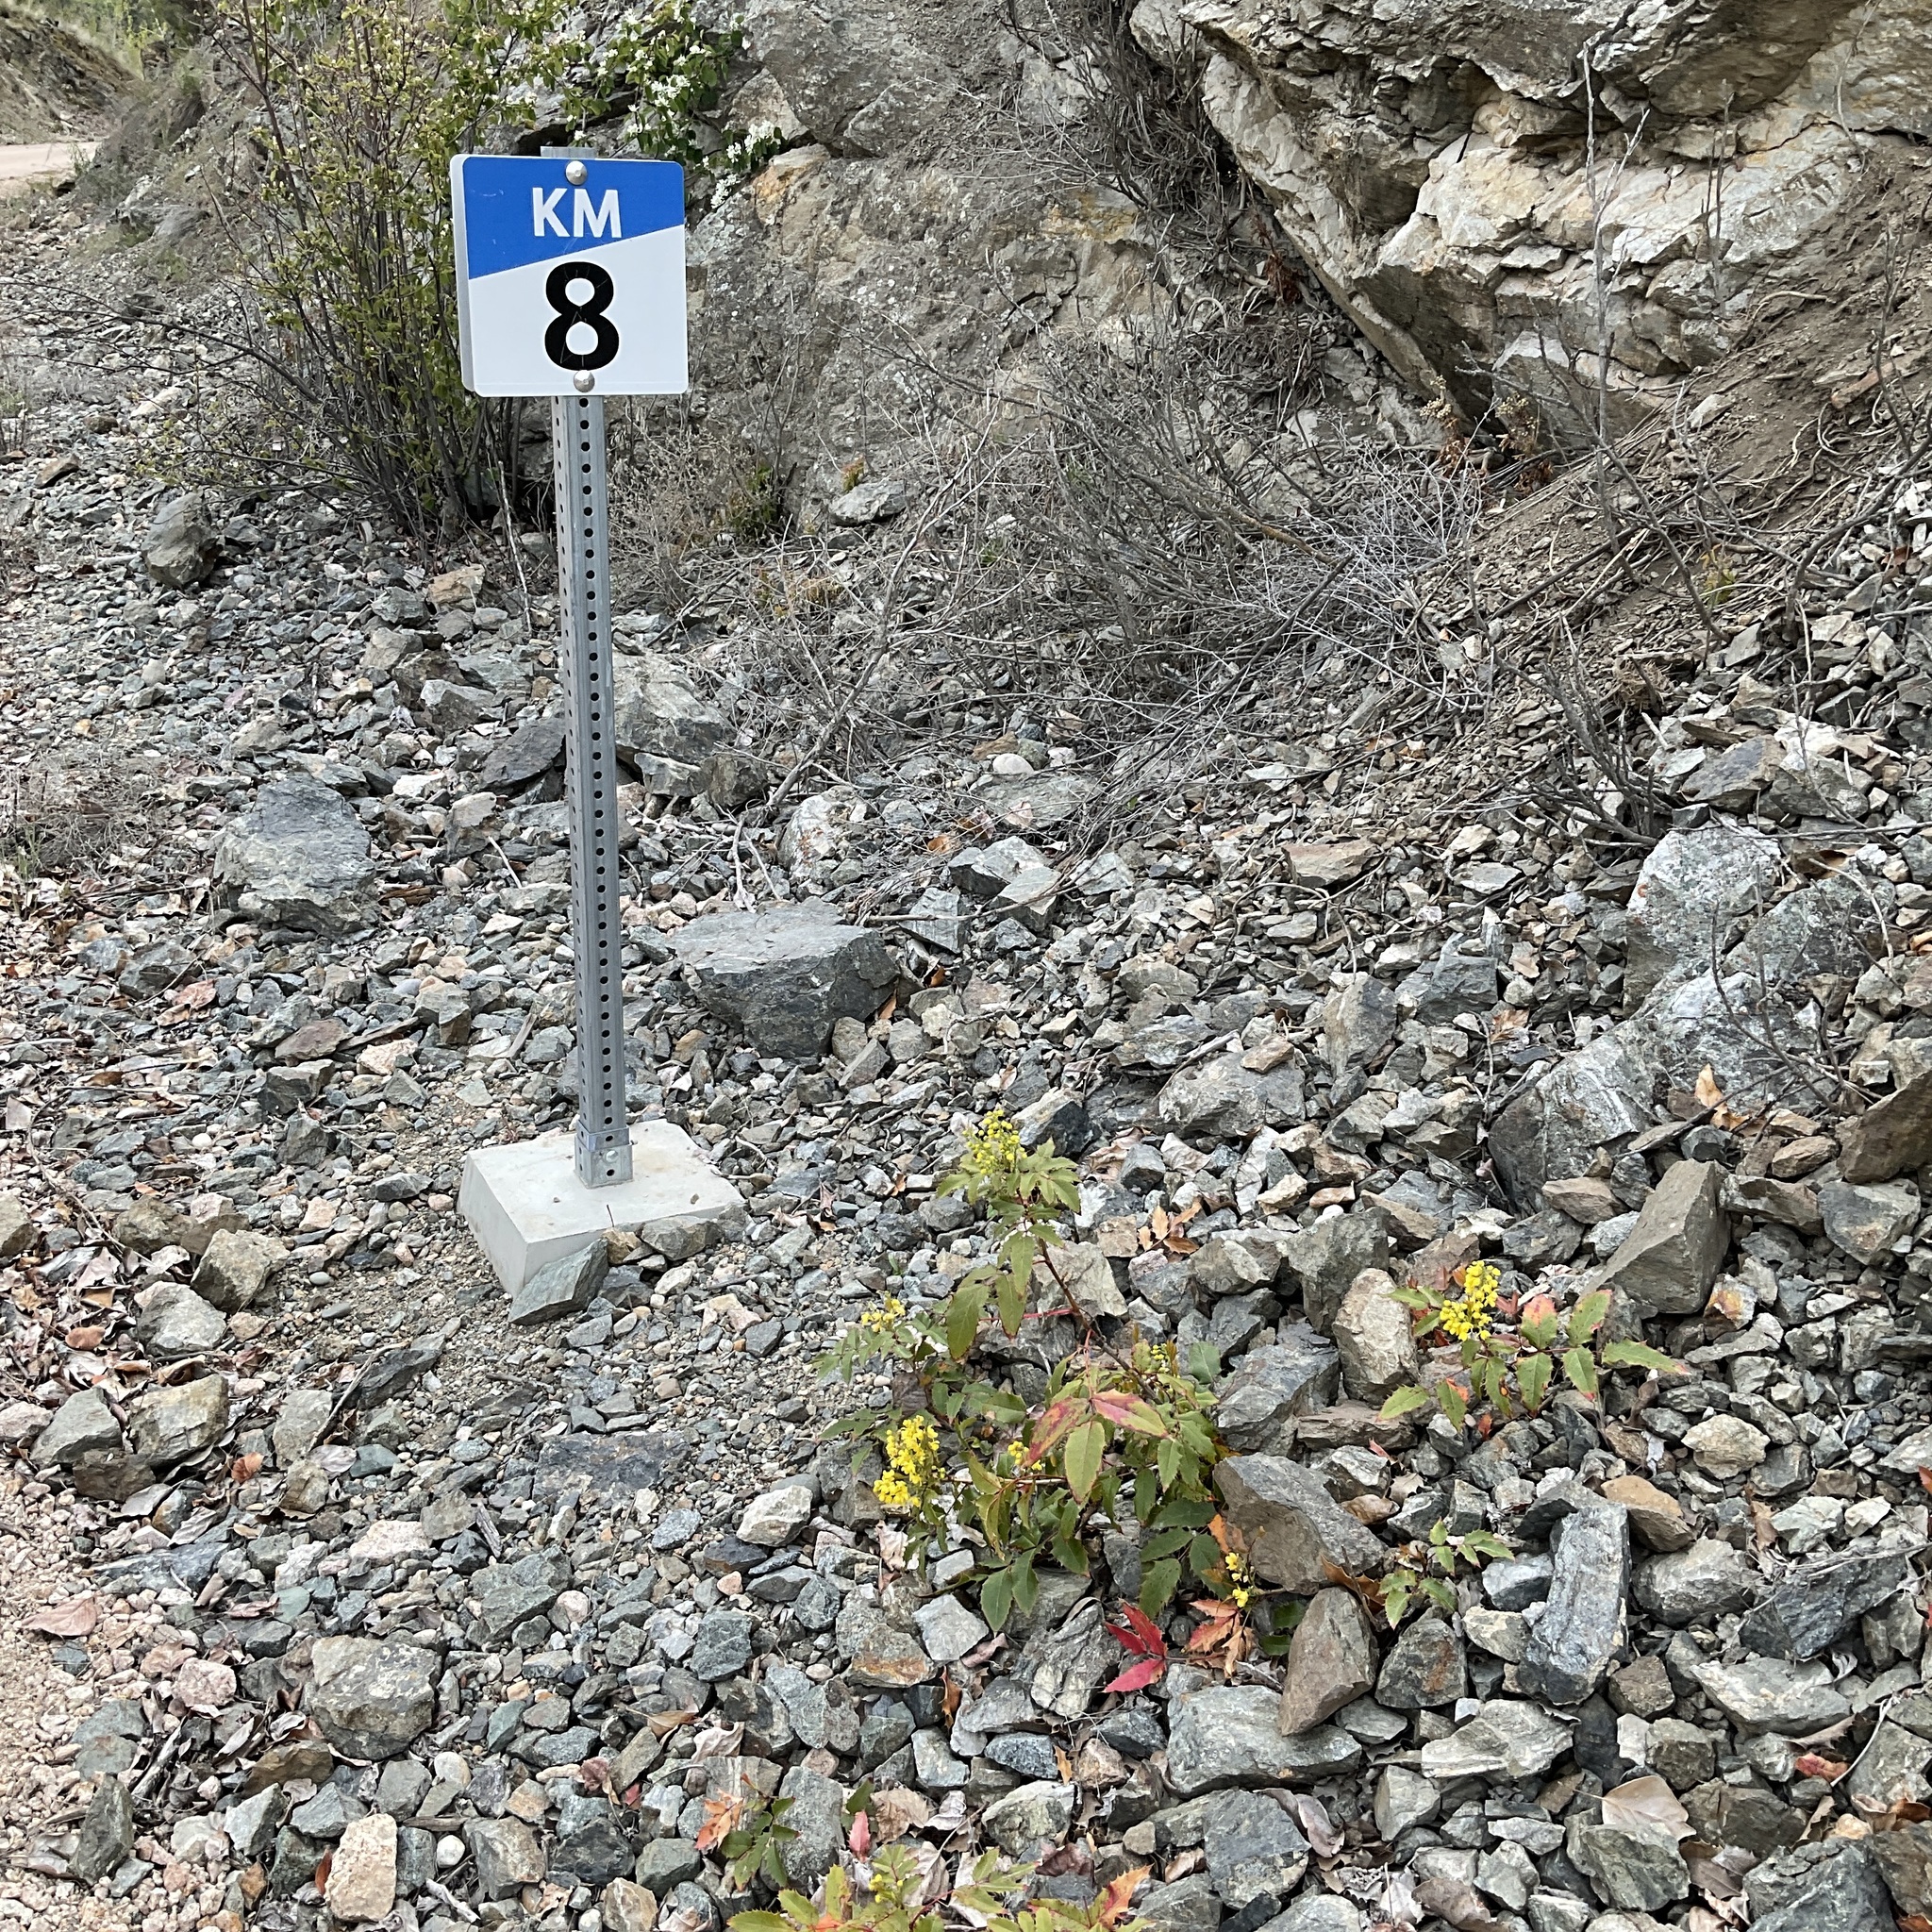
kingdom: Plantae
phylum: Tracheophyta
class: Magnoliopsida
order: Ranunculales
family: Berberidaceae
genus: Mahonia
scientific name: Mahonia aquifolium
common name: Oregon-grape
